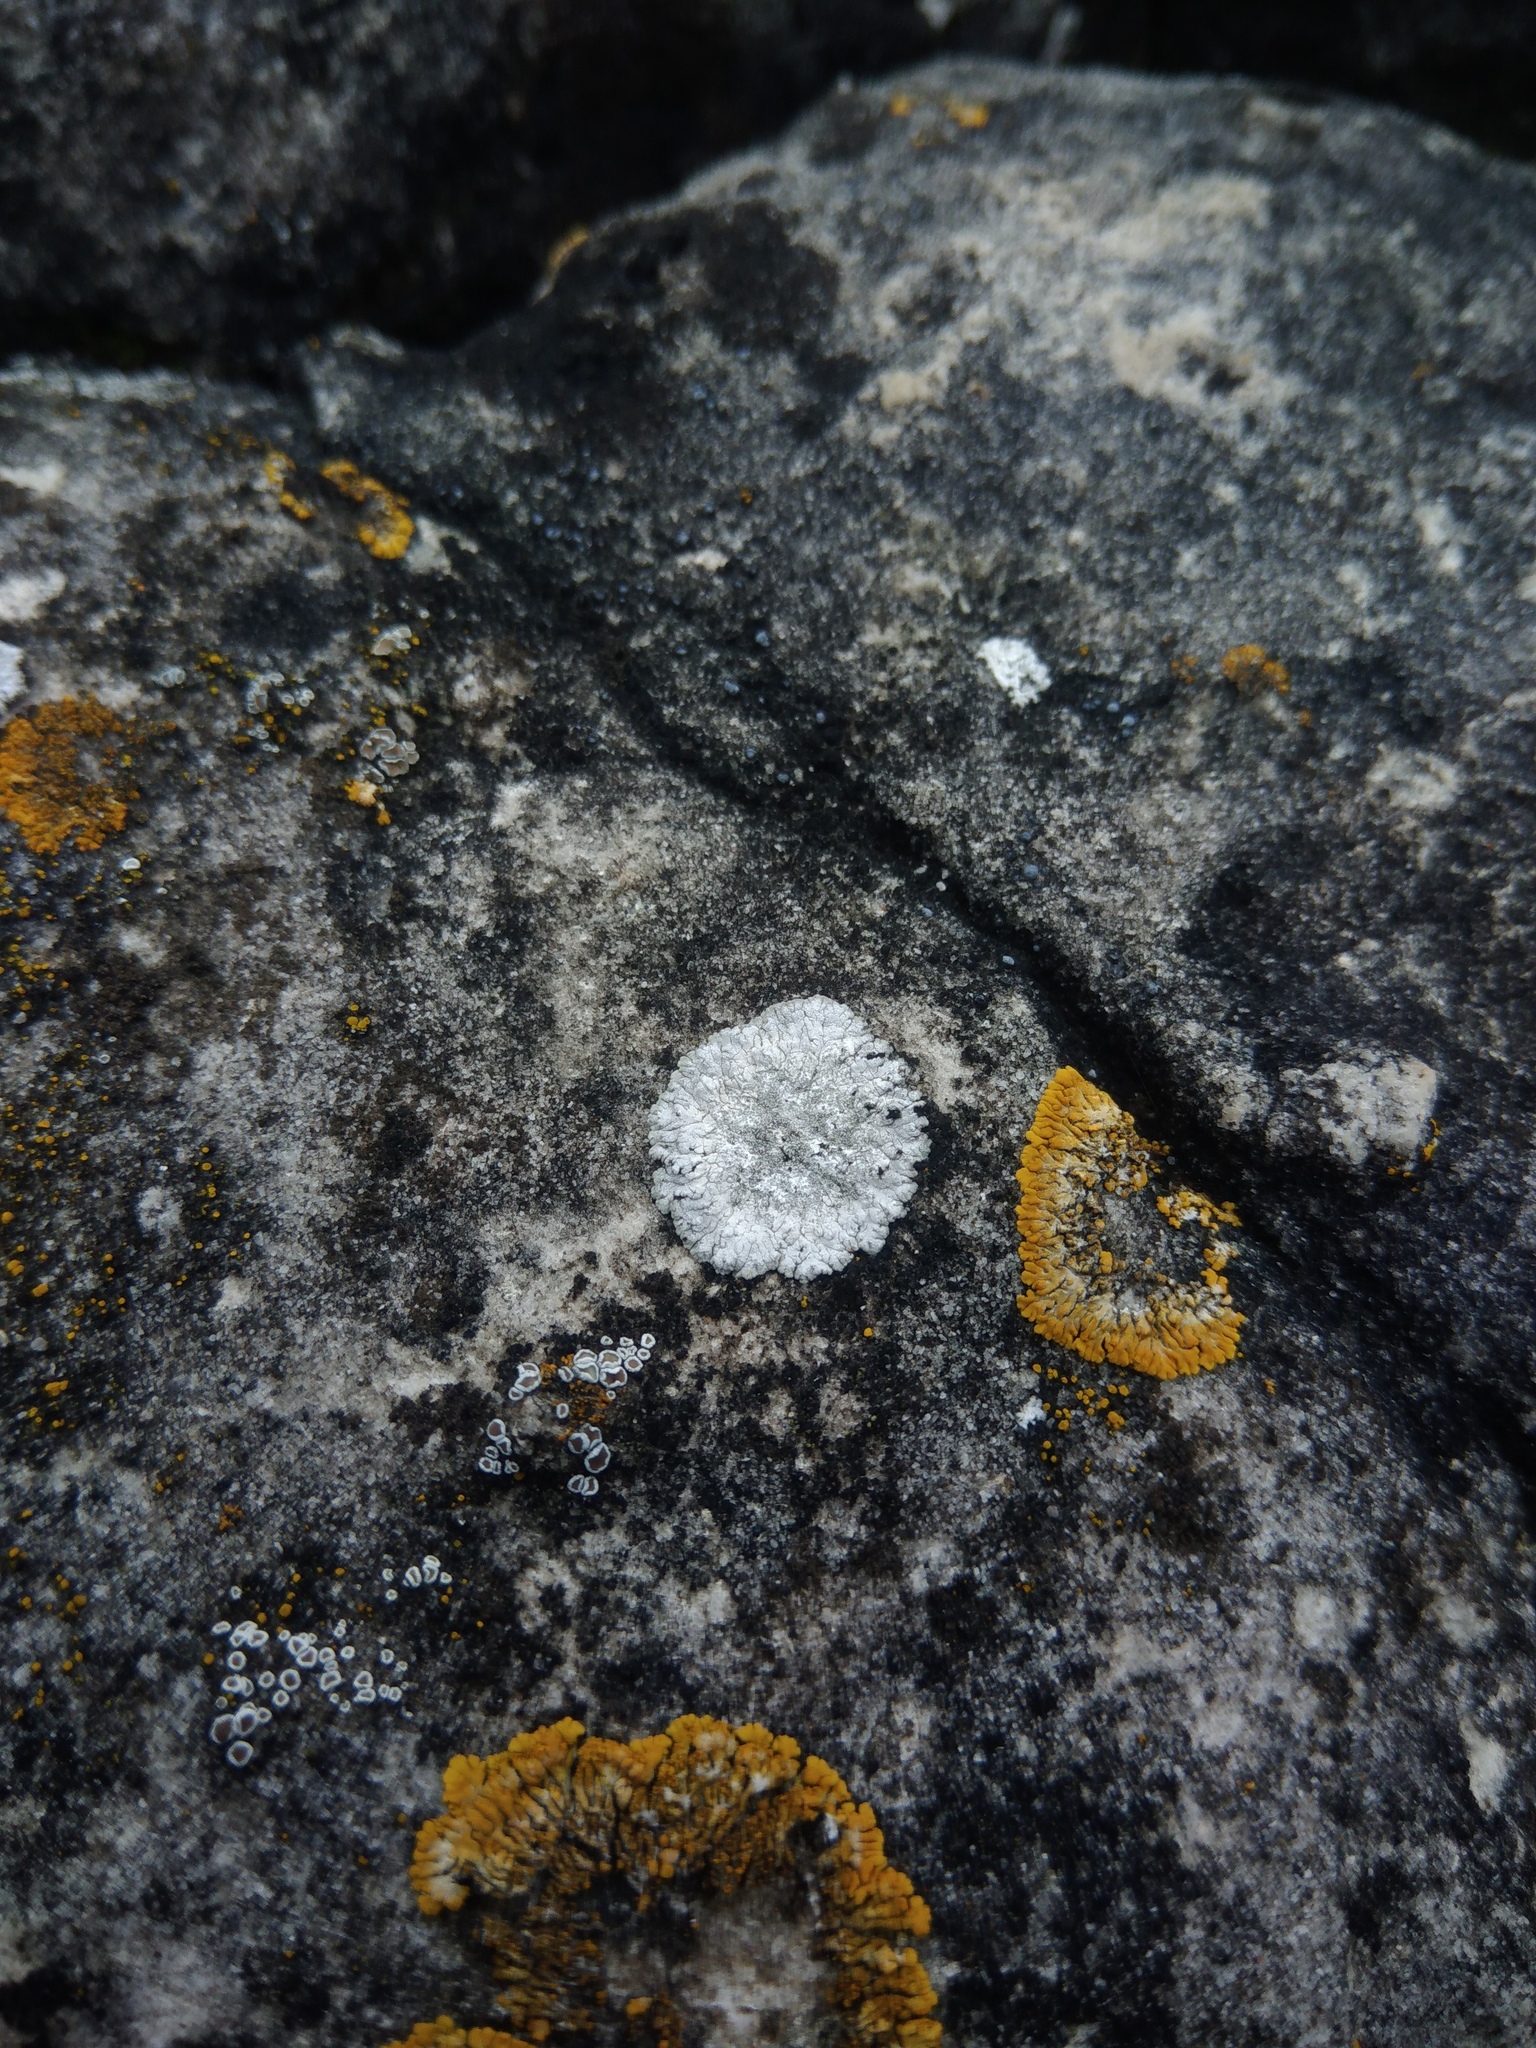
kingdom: Fungi
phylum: Ascomycota
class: Lecanoromycetes
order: Teloschistales
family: Teloschistaceae
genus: Kuettlingeria
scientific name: Kuettlingeria teicholyta
